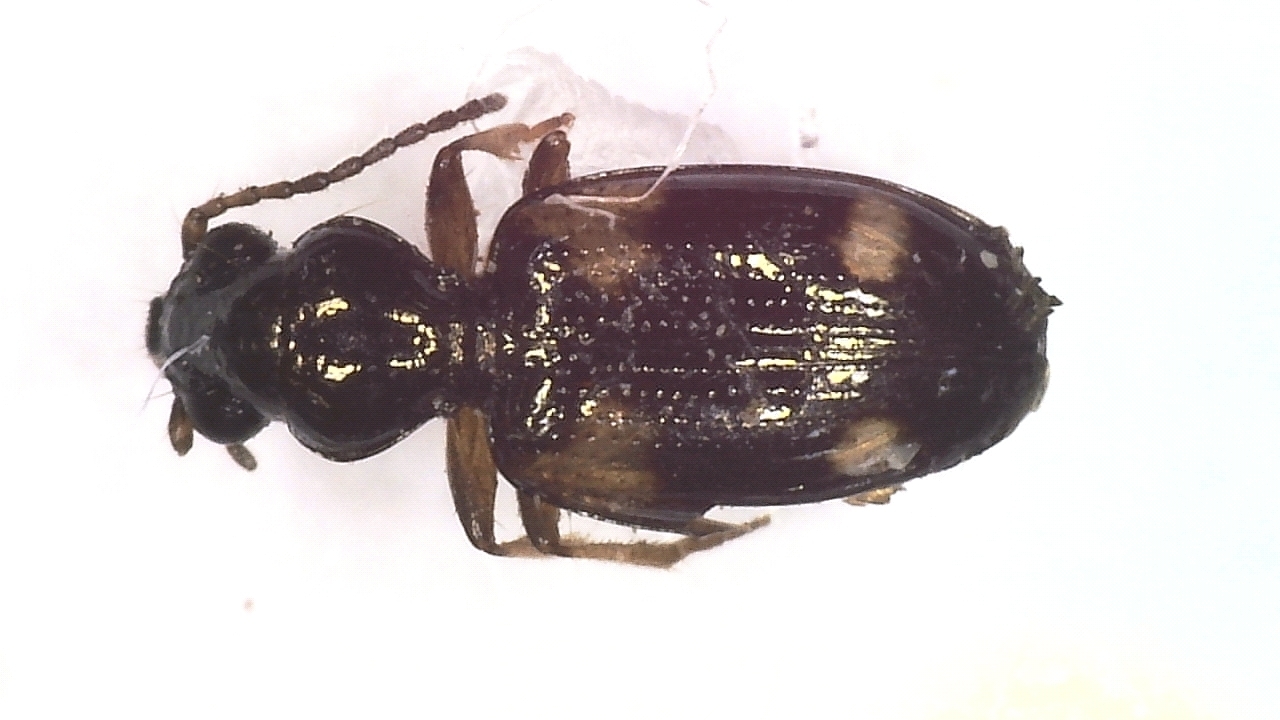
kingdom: Animalia
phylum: Arthropoda
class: Insecta
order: Coleoptera
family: Carabidae
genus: Bembidion
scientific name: Bembidion quadrimaculatum
